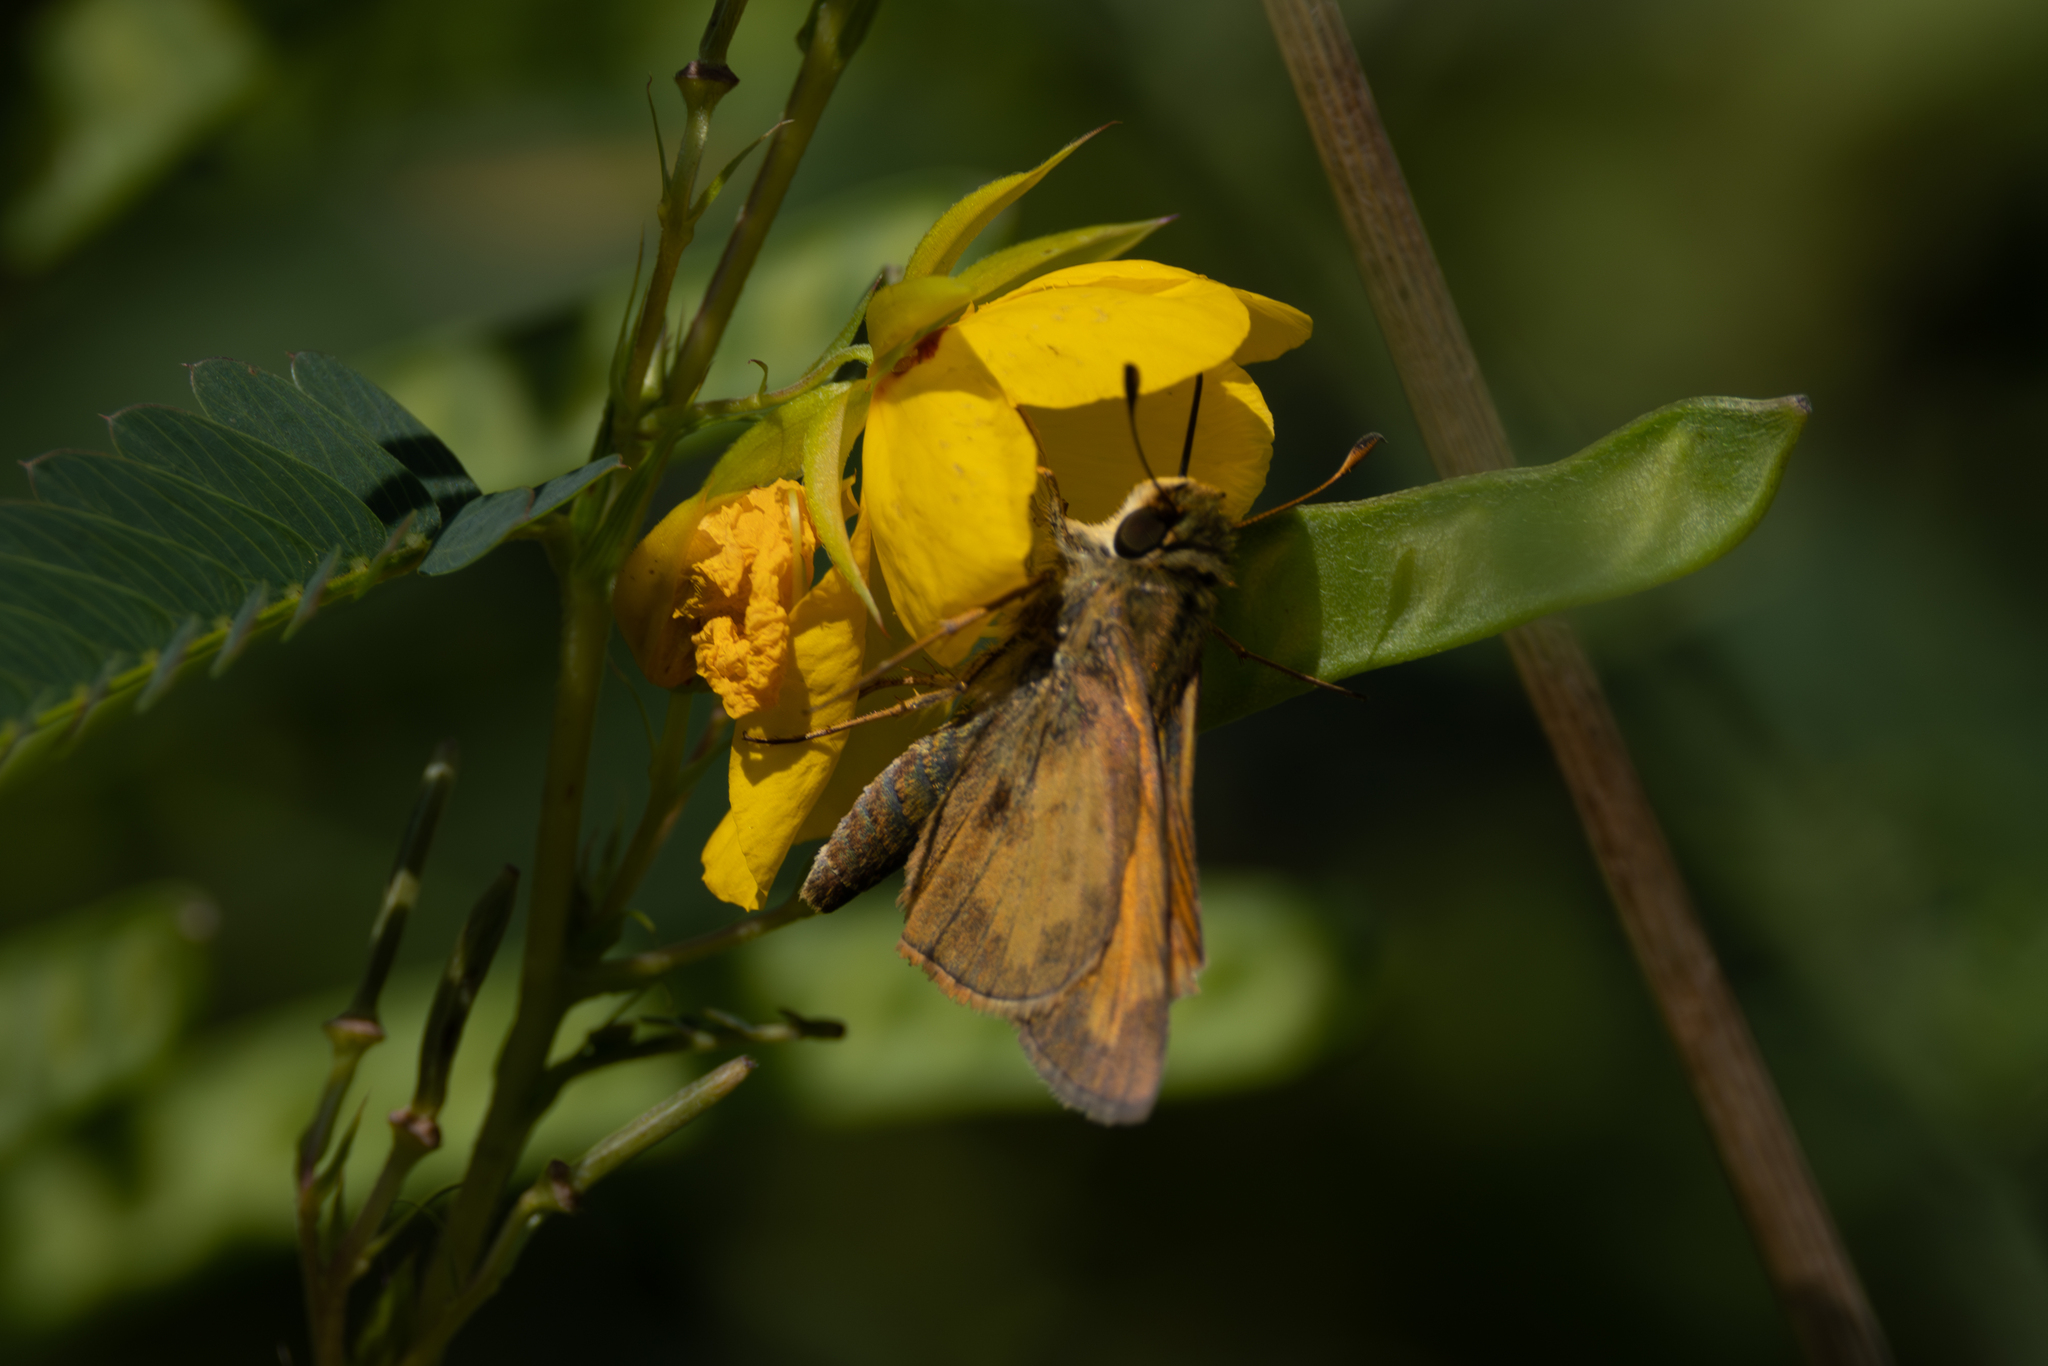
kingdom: Animalia
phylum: Arthropoda
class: Insecta
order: Lepidoptera
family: Hesperiidae
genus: Atalopedes
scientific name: Atalopedes
